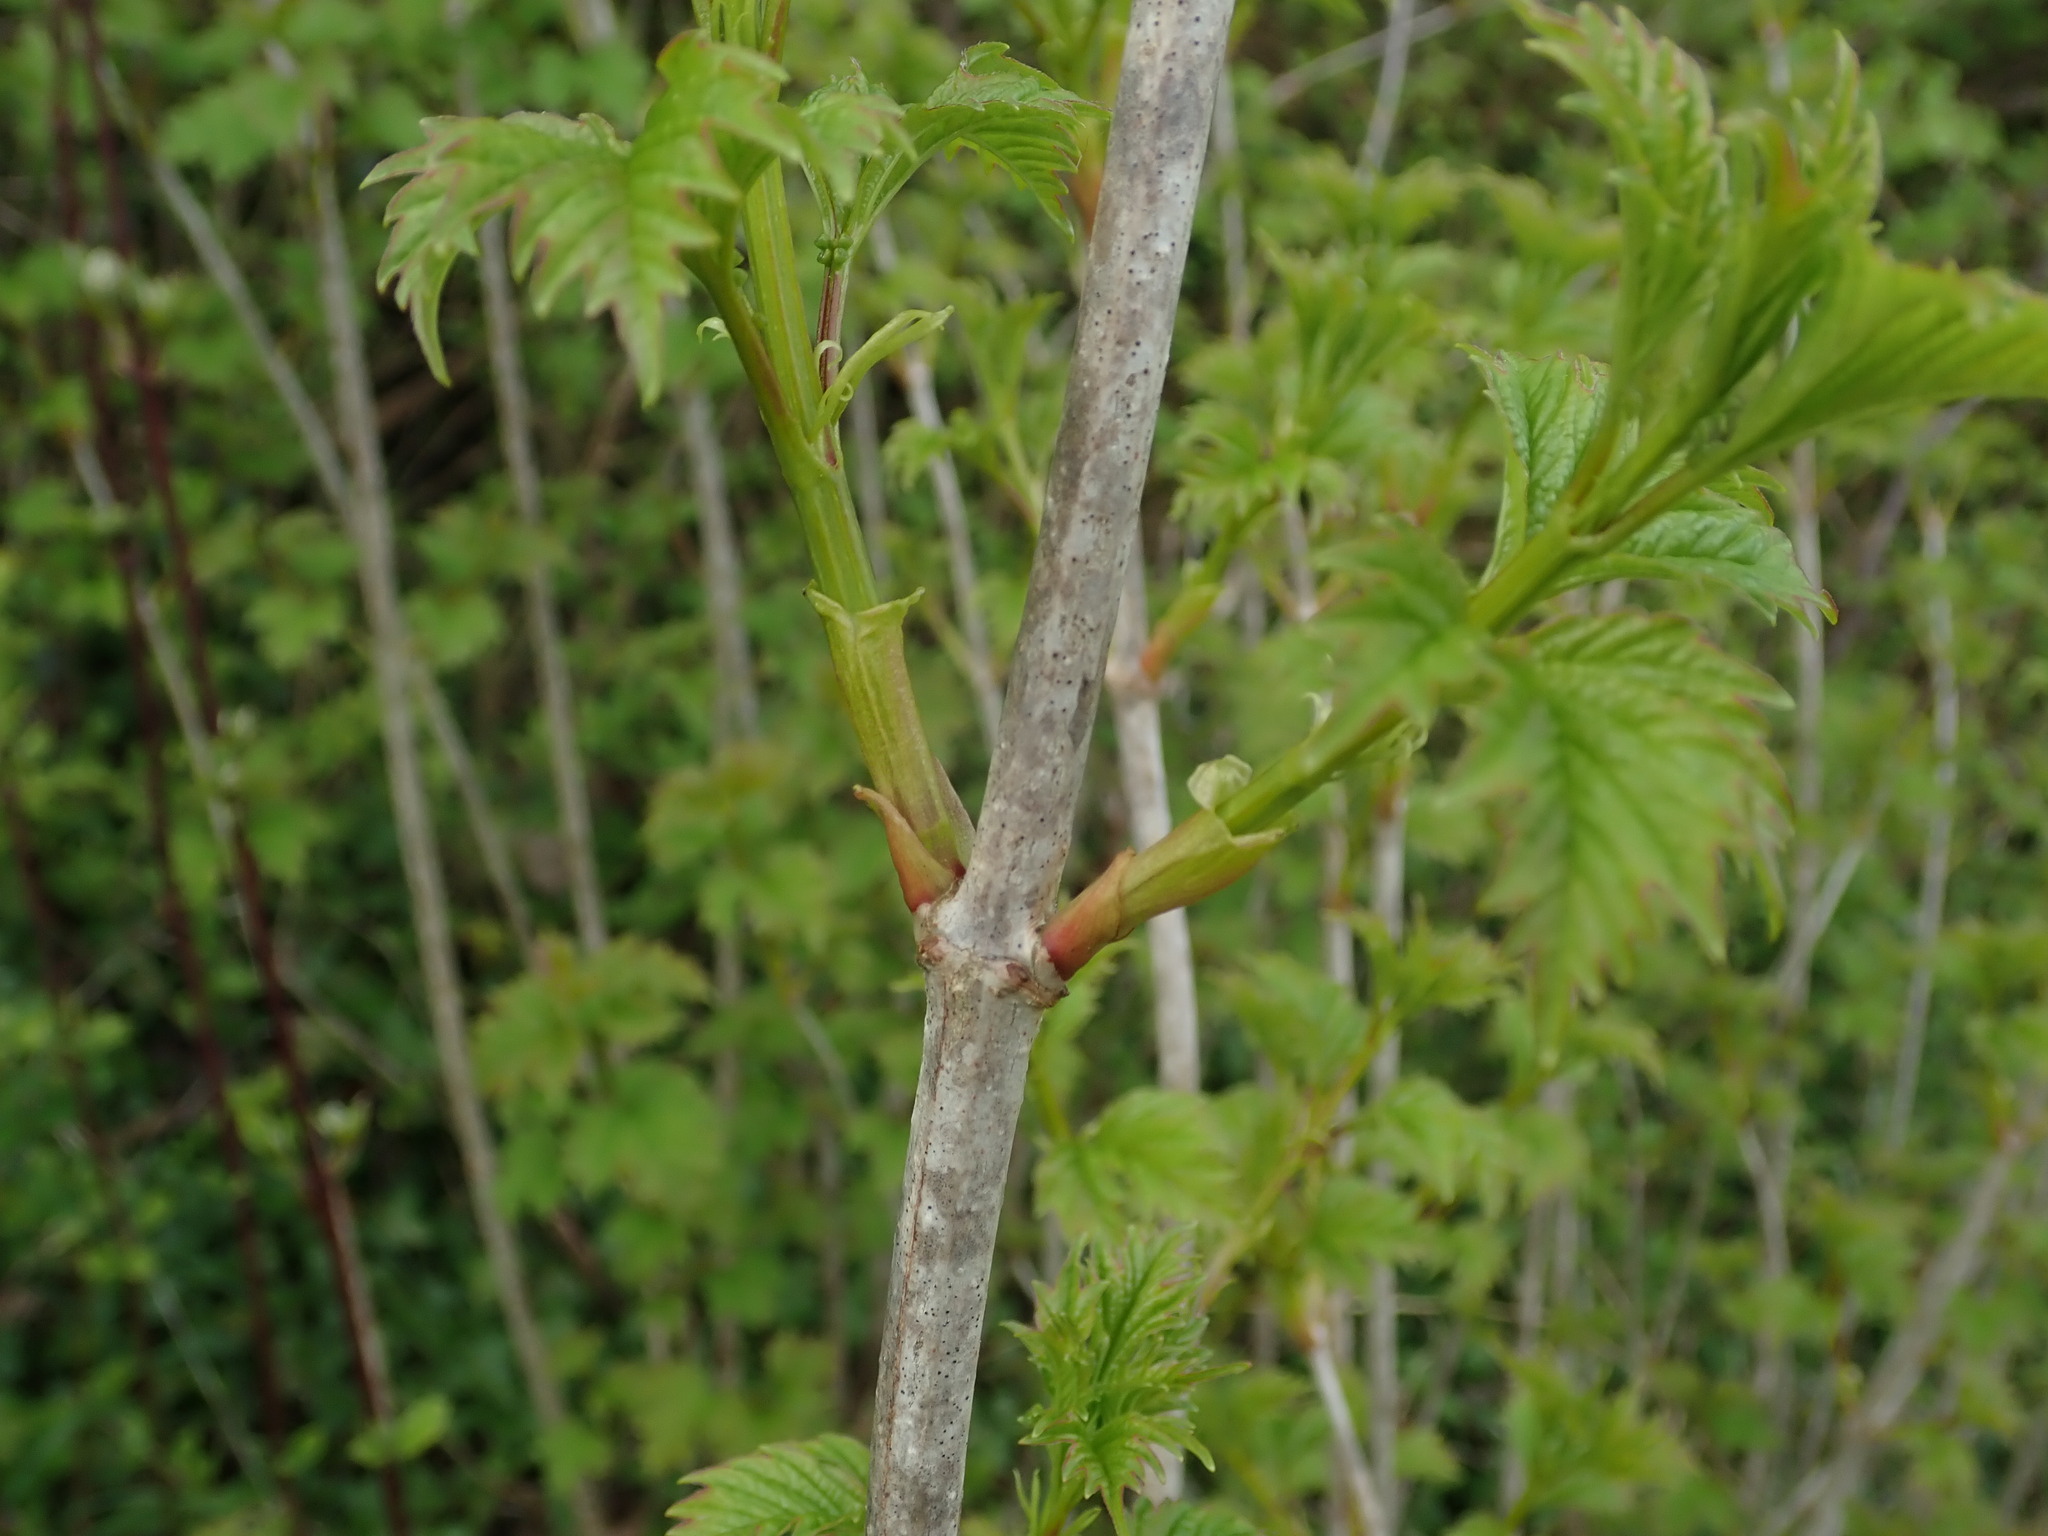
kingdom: Plantae
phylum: Tracheophyta
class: Magnoliopsida
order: Dipsacales
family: Viburnaceae
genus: Viburnum
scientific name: Viburnum opulus
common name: Guelder-rose
